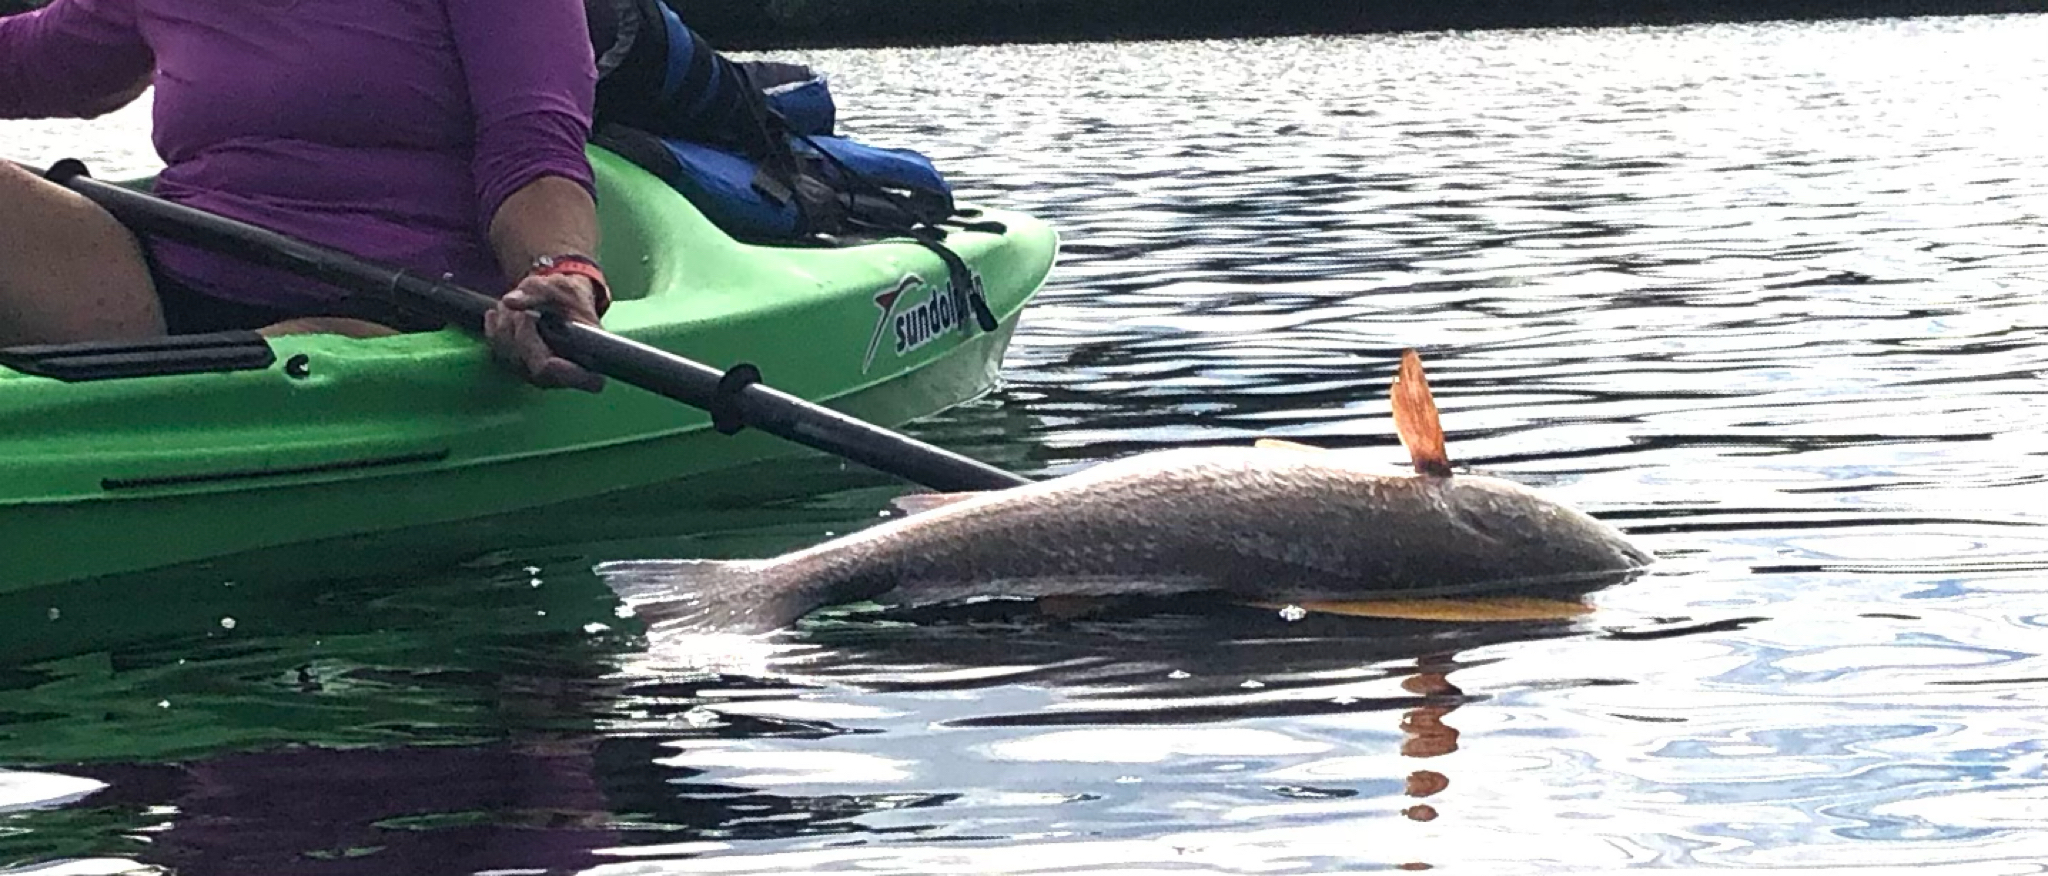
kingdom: Animalia
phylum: Chordata
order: Perciformes
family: Sciaenidae
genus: Sciaenops
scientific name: Sciaenops ocellatus
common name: Red drum
